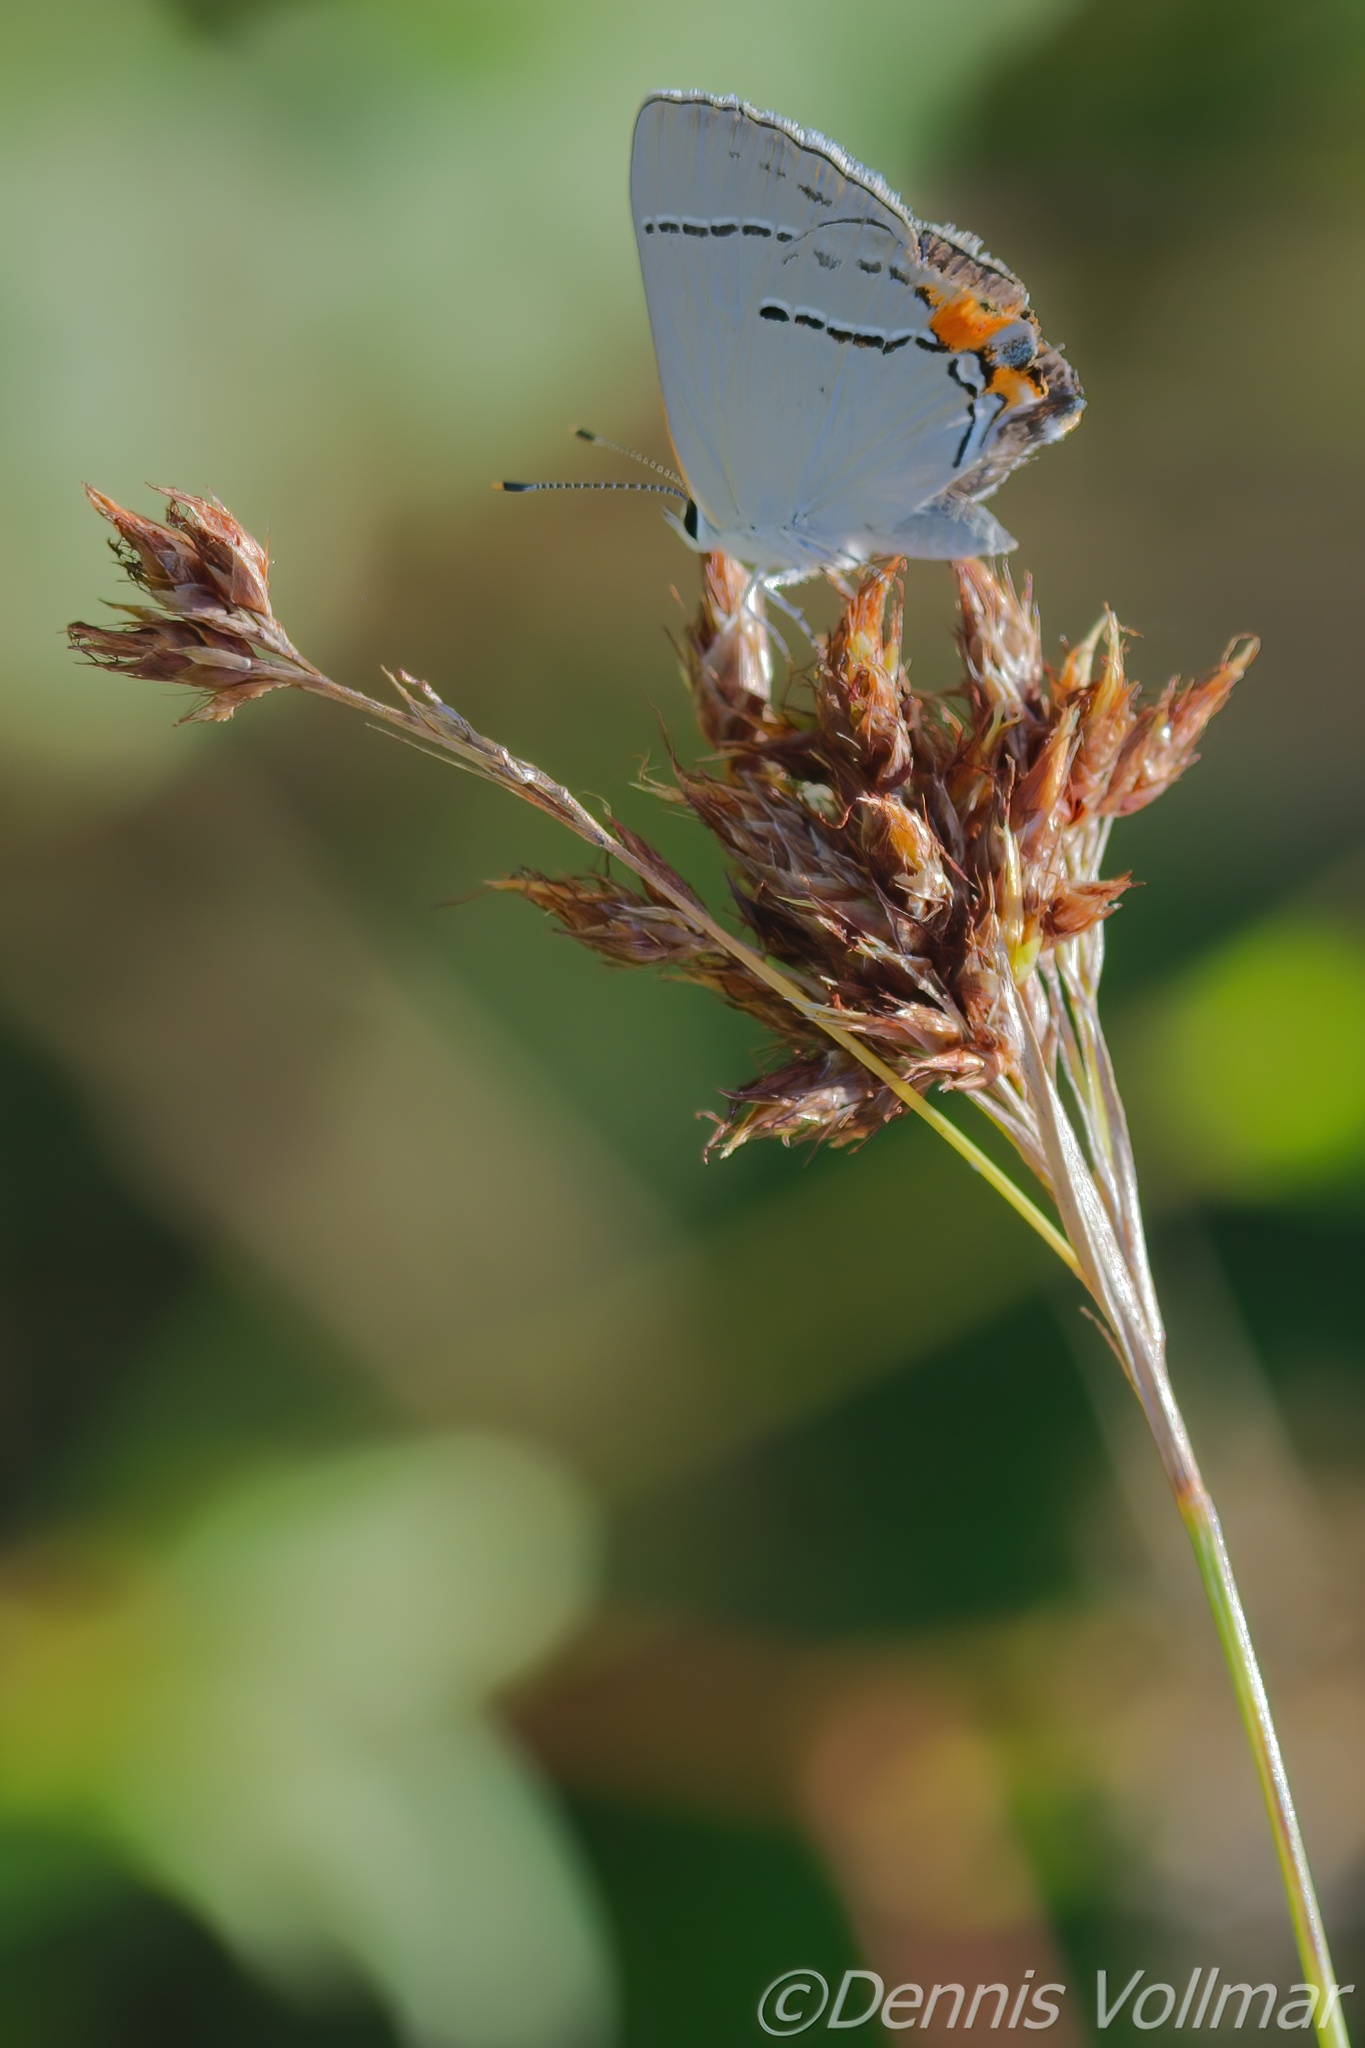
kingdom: Animalia
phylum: Arthropoda
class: Insecta
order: Lepidoptera
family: Lycaenidae
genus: Strymon
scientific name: Strymon melinus
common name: Gray hairstreak
